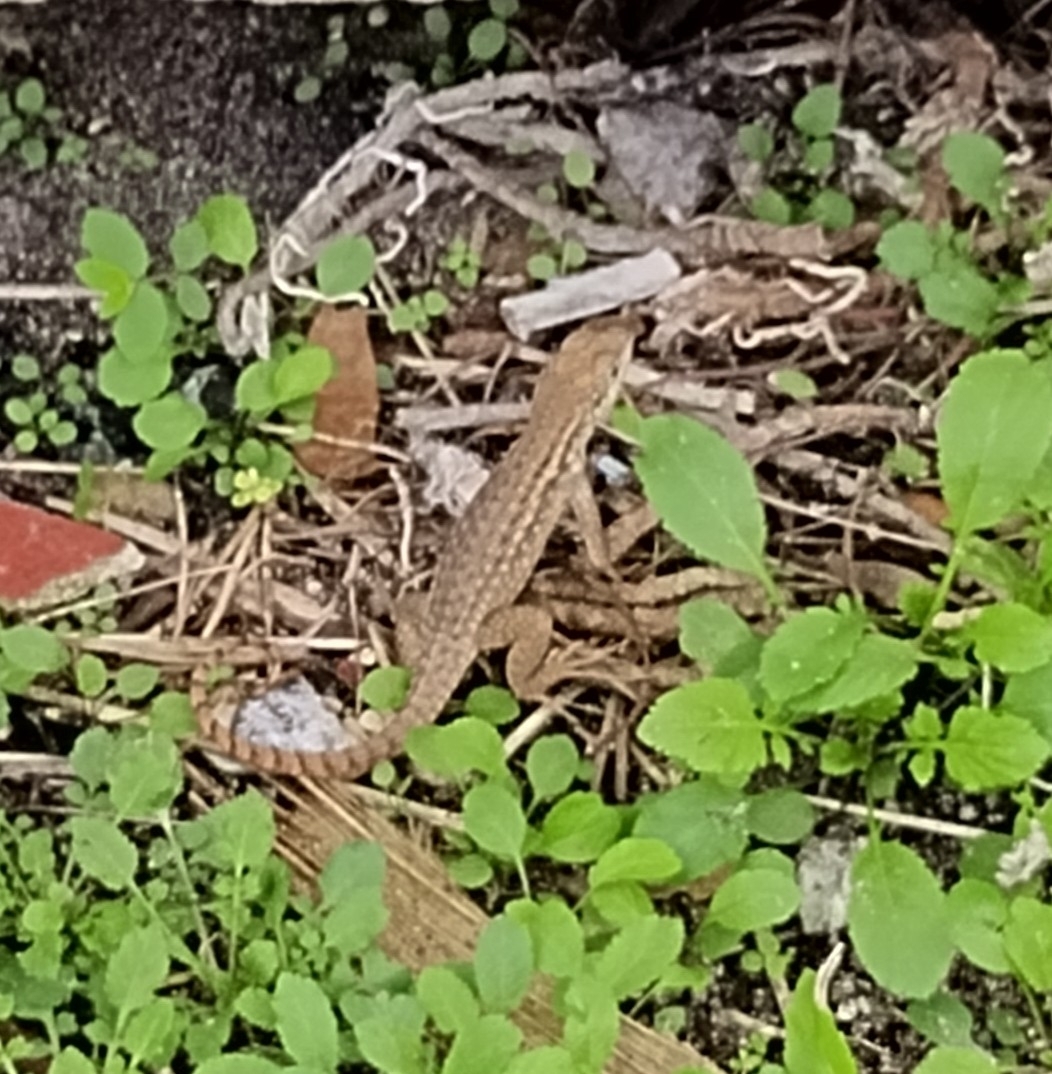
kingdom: Animalia
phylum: Chordata
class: Squamata
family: Leiocephalidae
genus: Leiocephalus
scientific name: Leiocephalus carinatus
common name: Northern curly-tailed lizard
